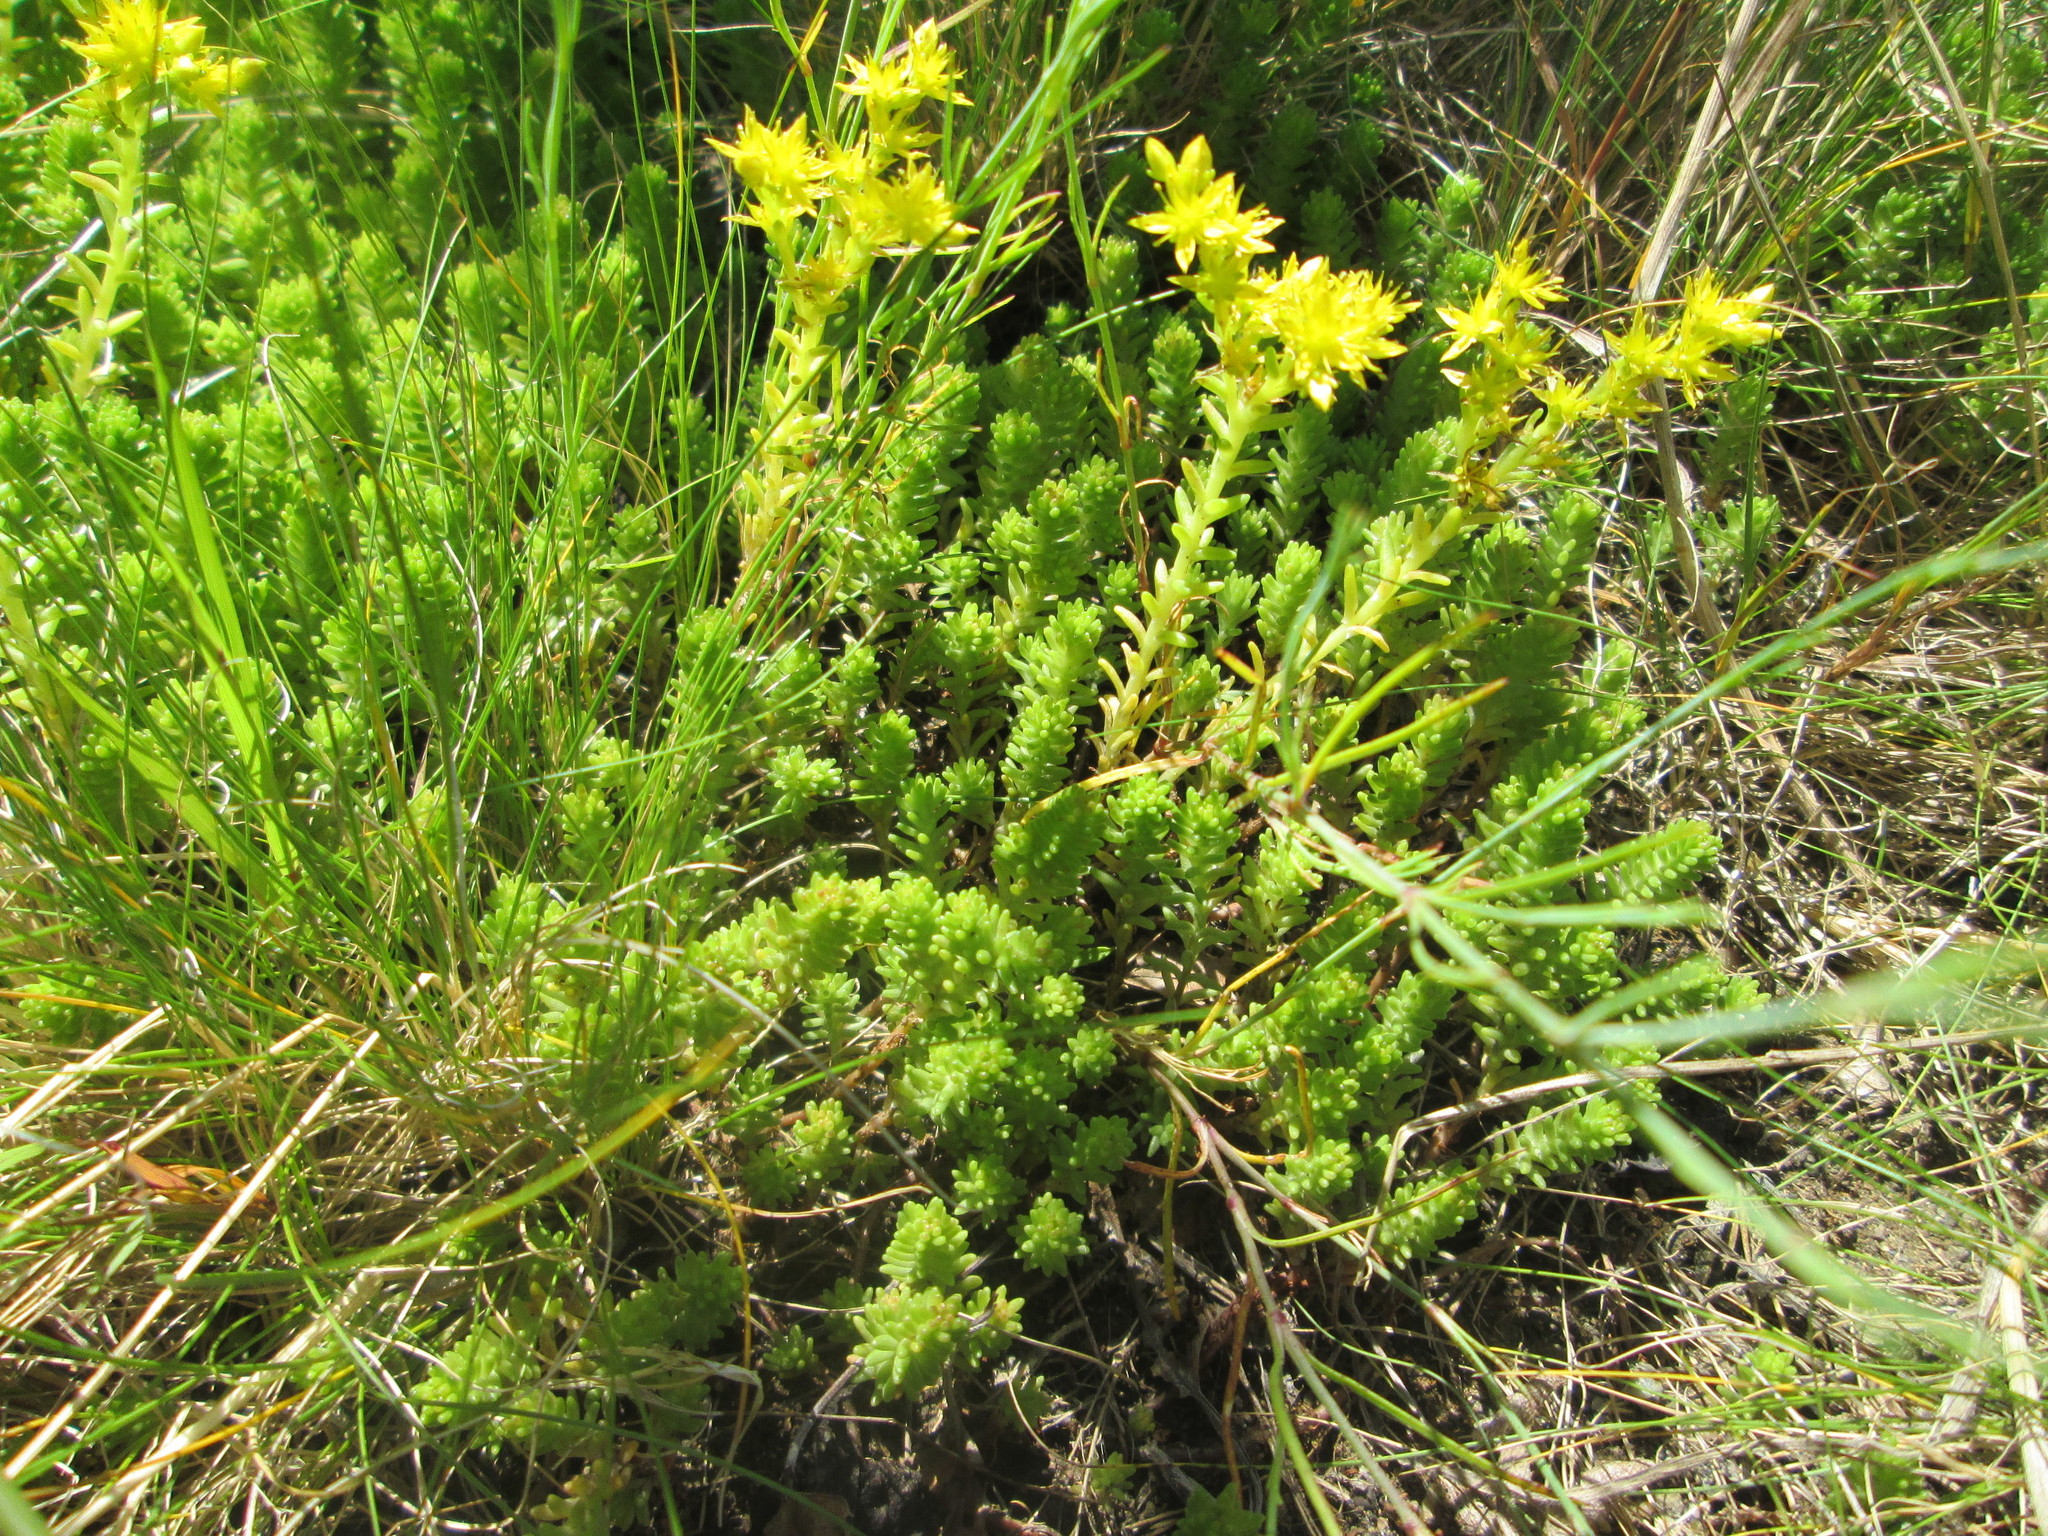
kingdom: Plantae
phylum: Tracheophyta
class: Magnoliopsida
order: Saxifragales
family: Crassulaceae
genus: Sedum
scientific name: Sedum sexangulare
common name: Tasteless stonecrop
